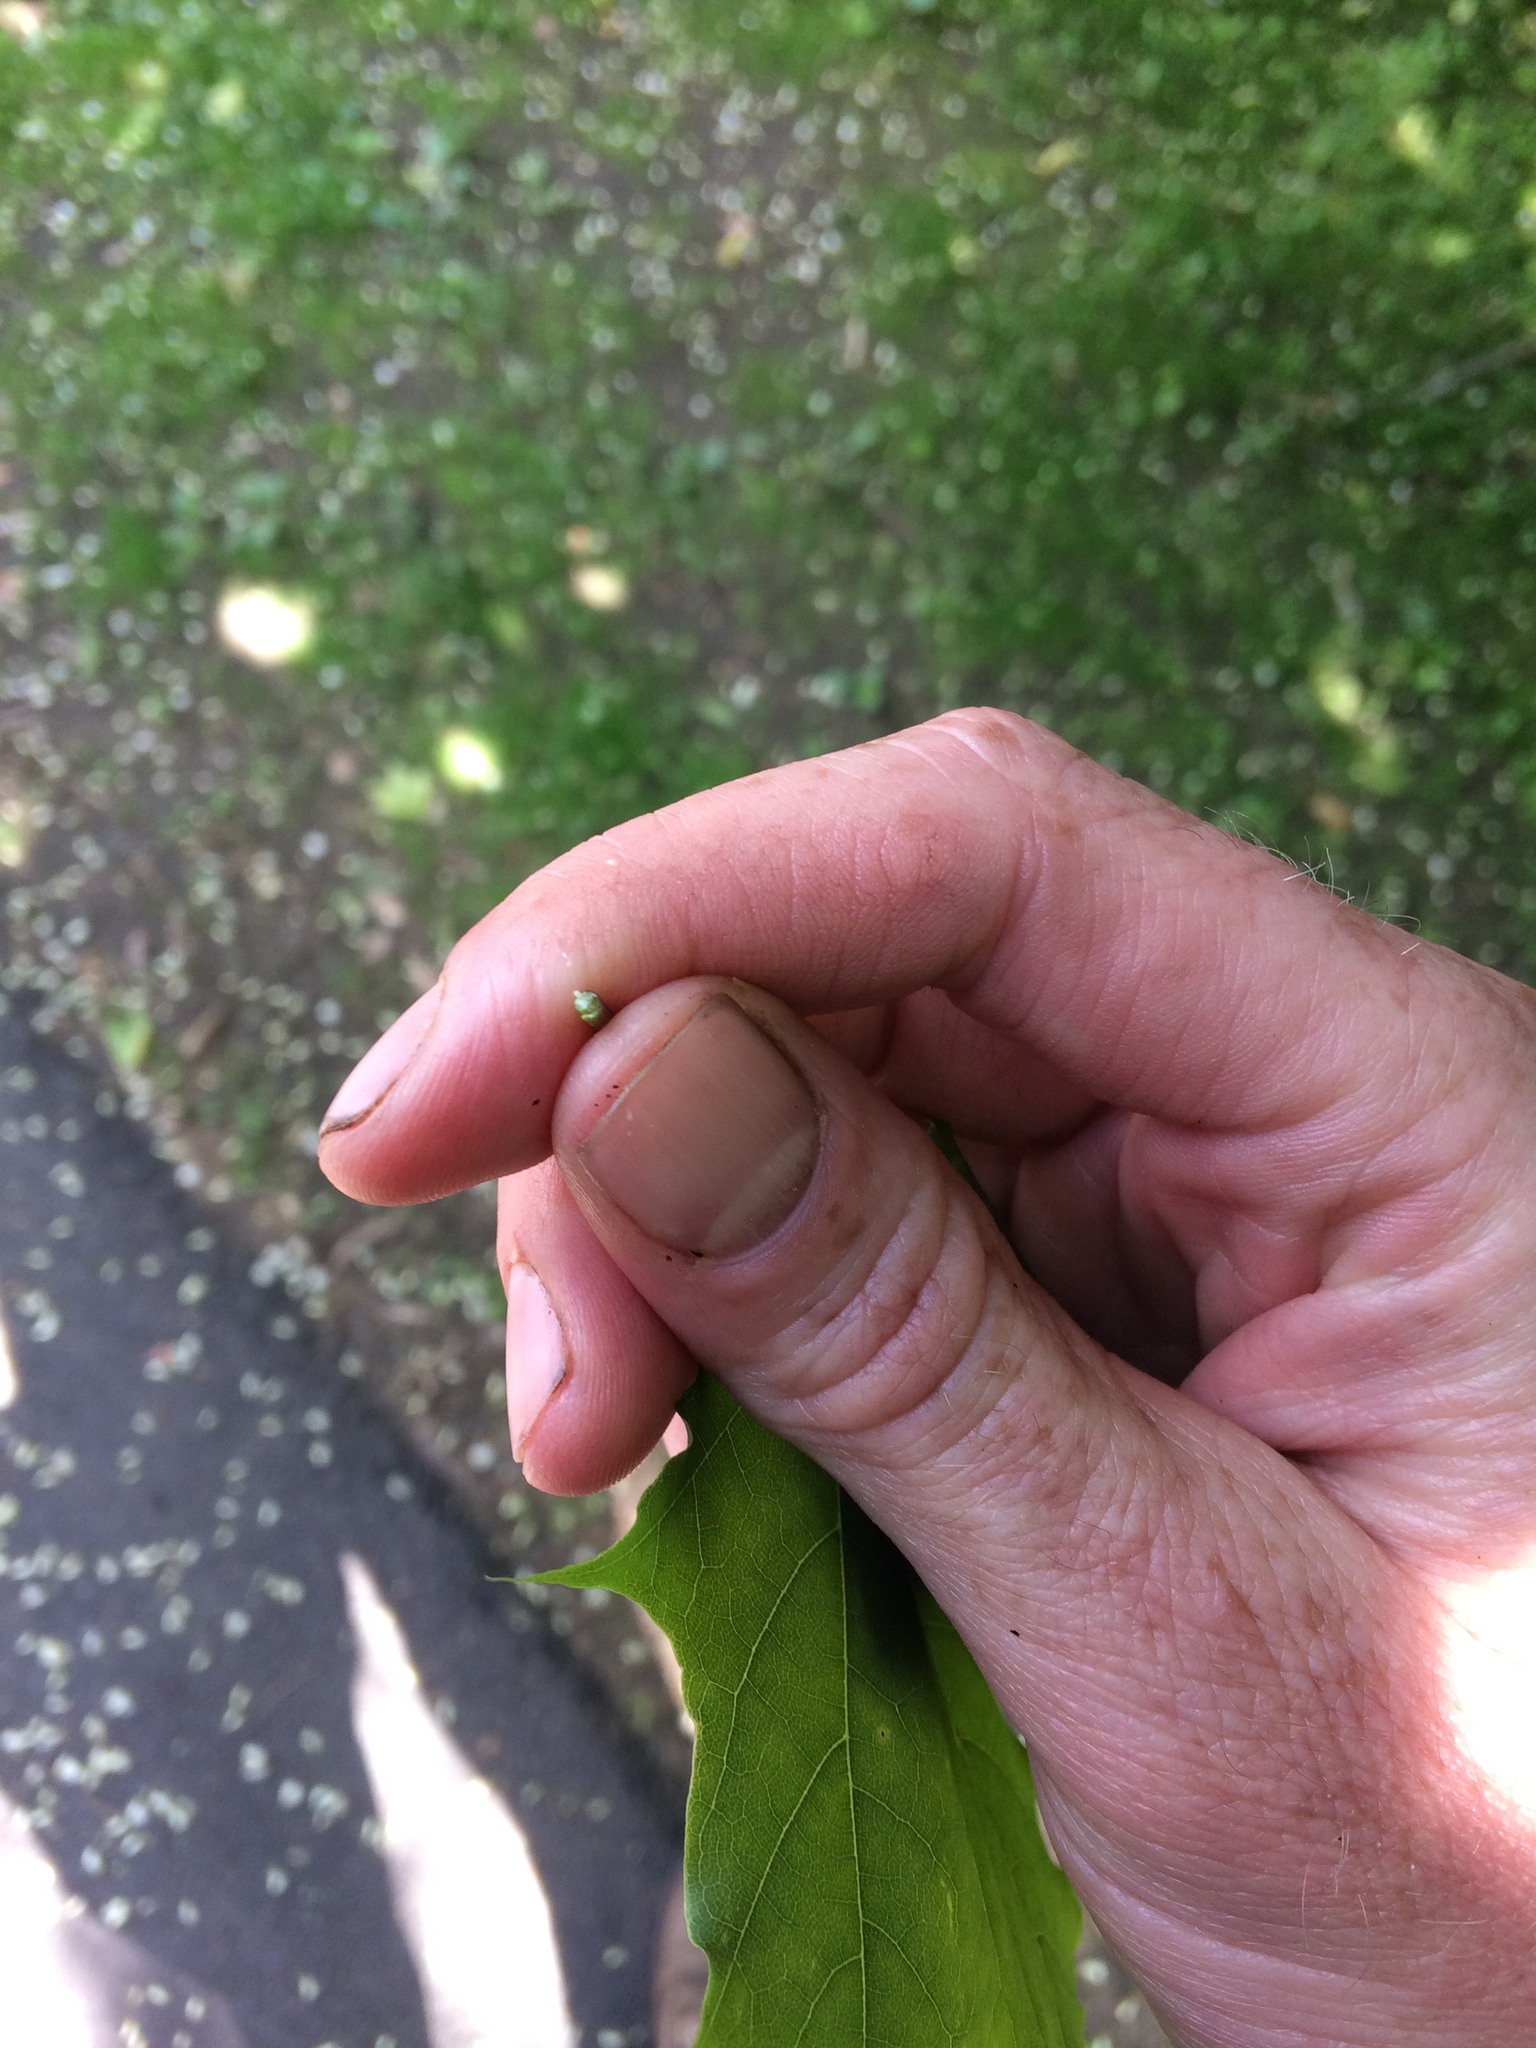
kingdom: Plantae
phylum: Tracheophyta
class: Magnoliopsida
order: Sapindales
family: Sapindaceae
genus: Acer
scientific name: Acer platanoides
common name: Norway maple
